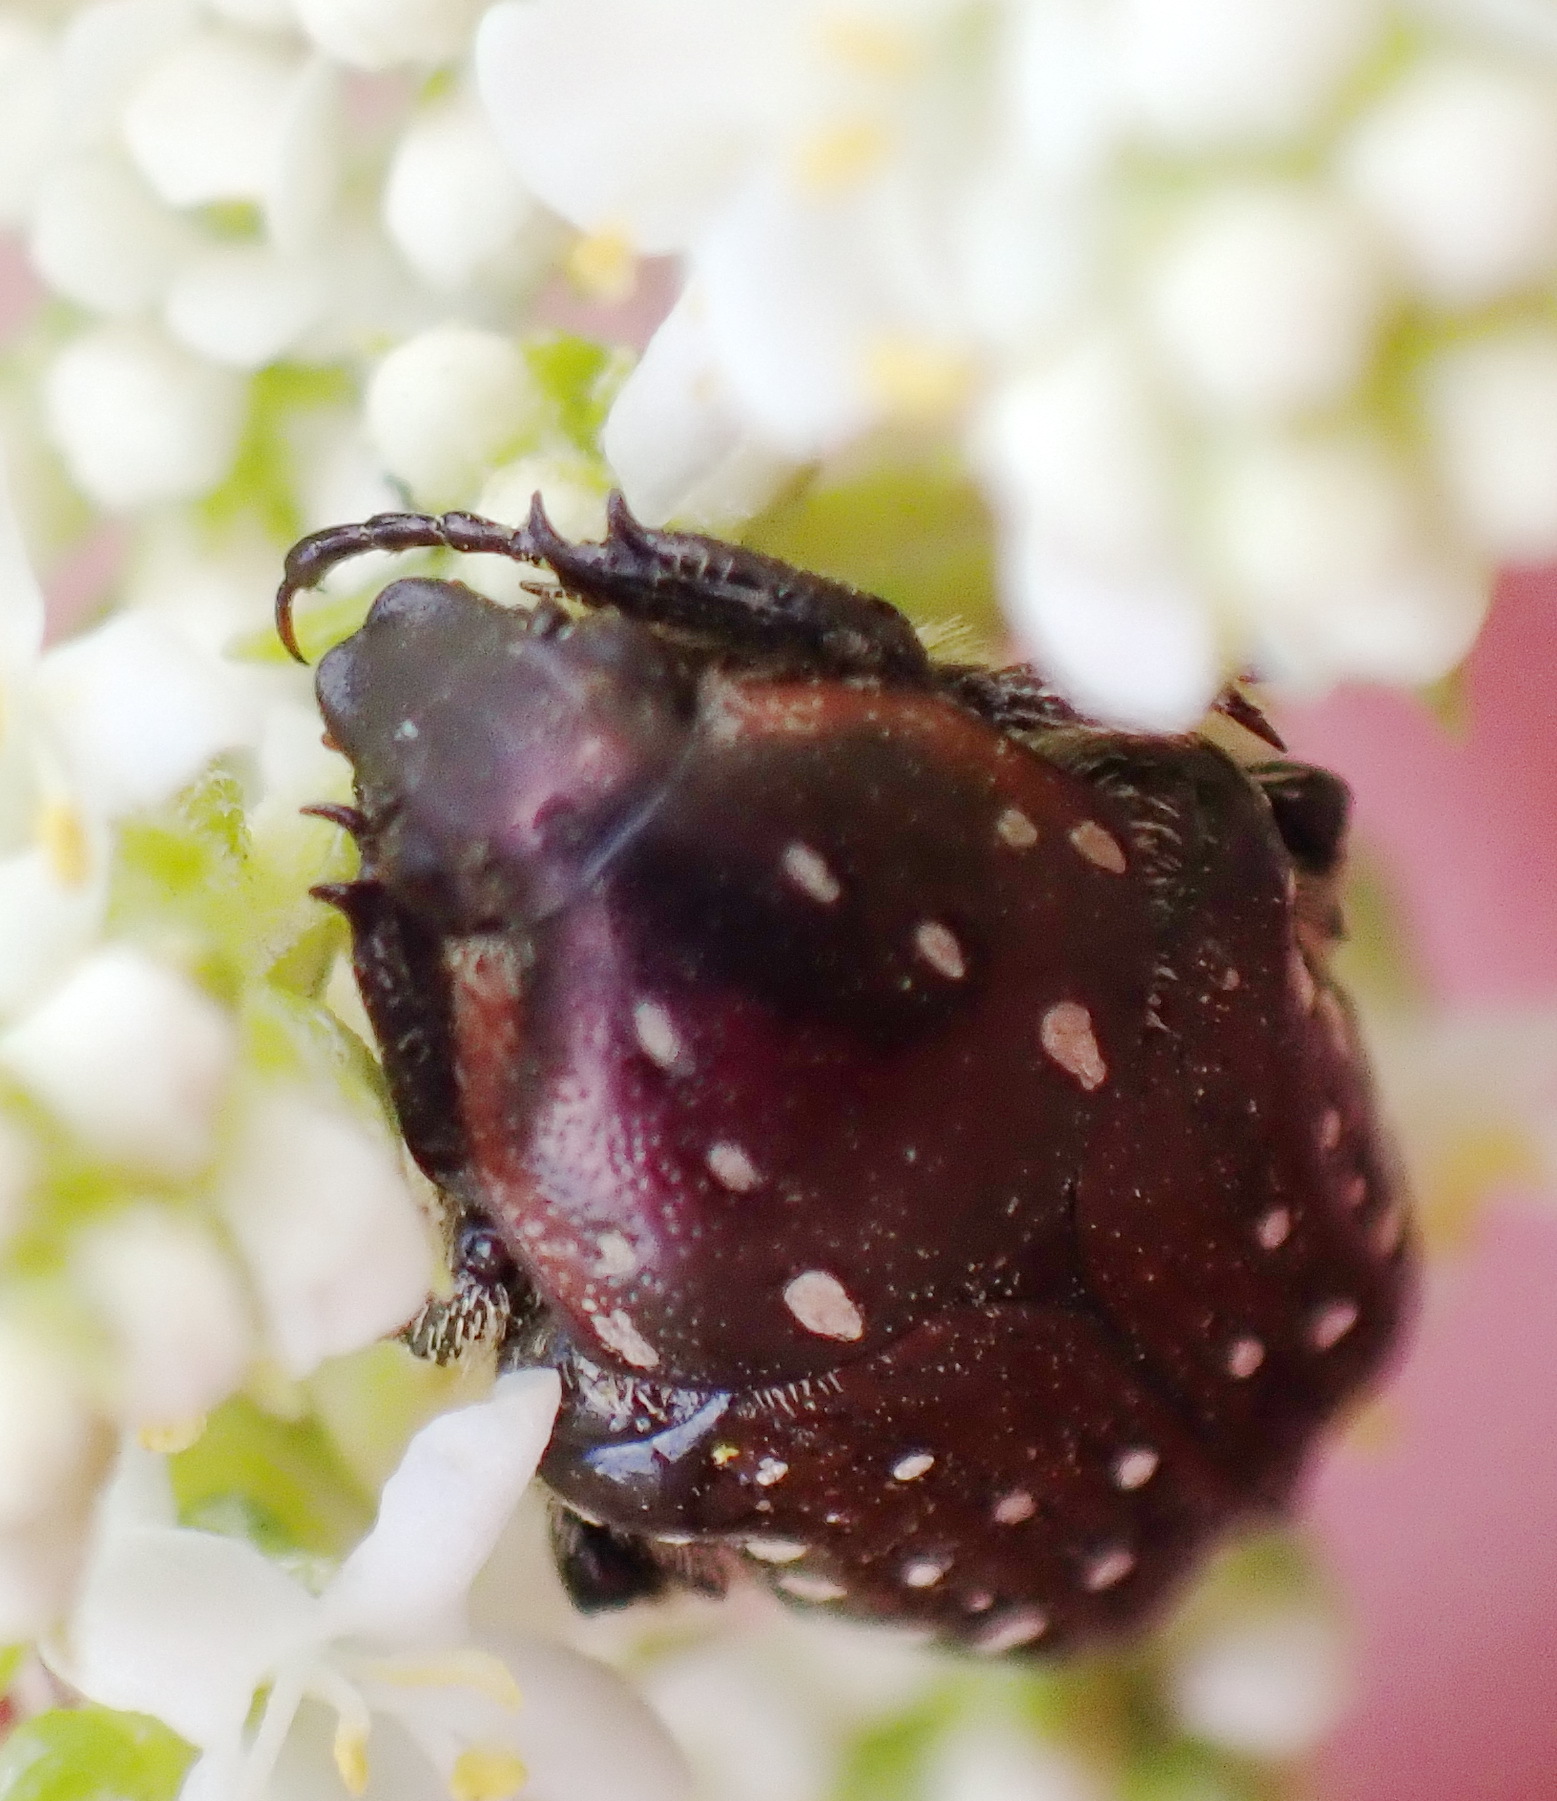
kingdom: Animalia
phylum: Arthropoda
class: Insecta
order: Coleoptera
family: Scarabaeidae
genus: Leucocelis
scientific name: Leucocelis adspersa
